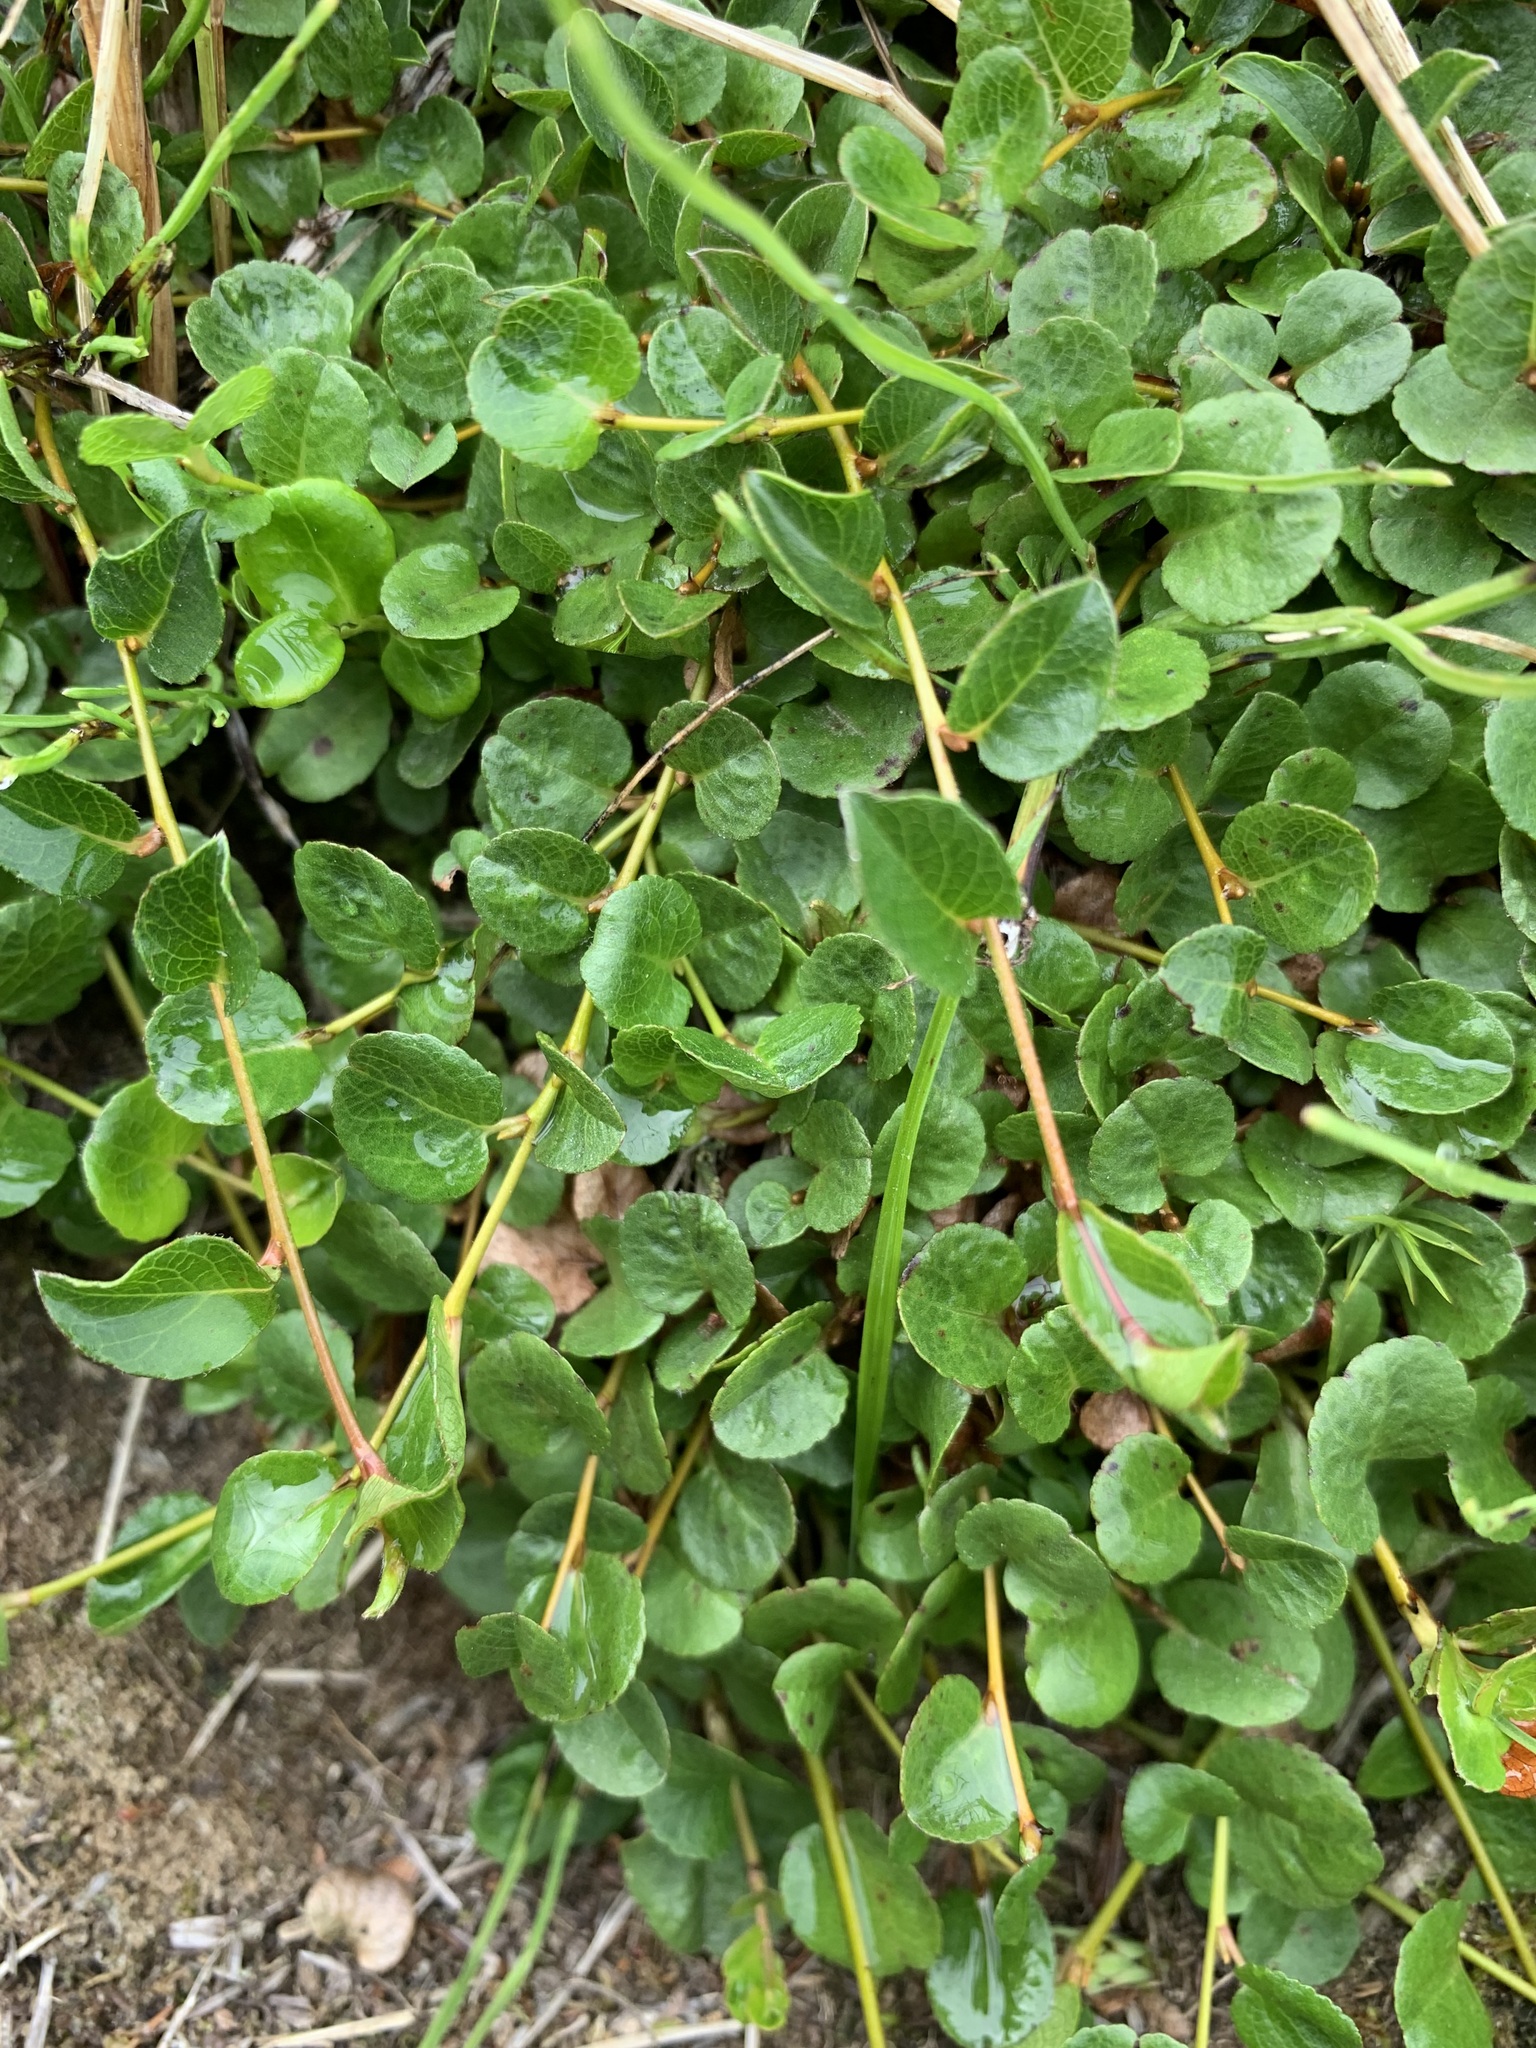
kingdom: Plantae
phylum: Tracheophyta
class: Magnoliopsida
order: Malpighiales
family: Salicaceae
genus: Salix
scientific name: Salix nummularia
